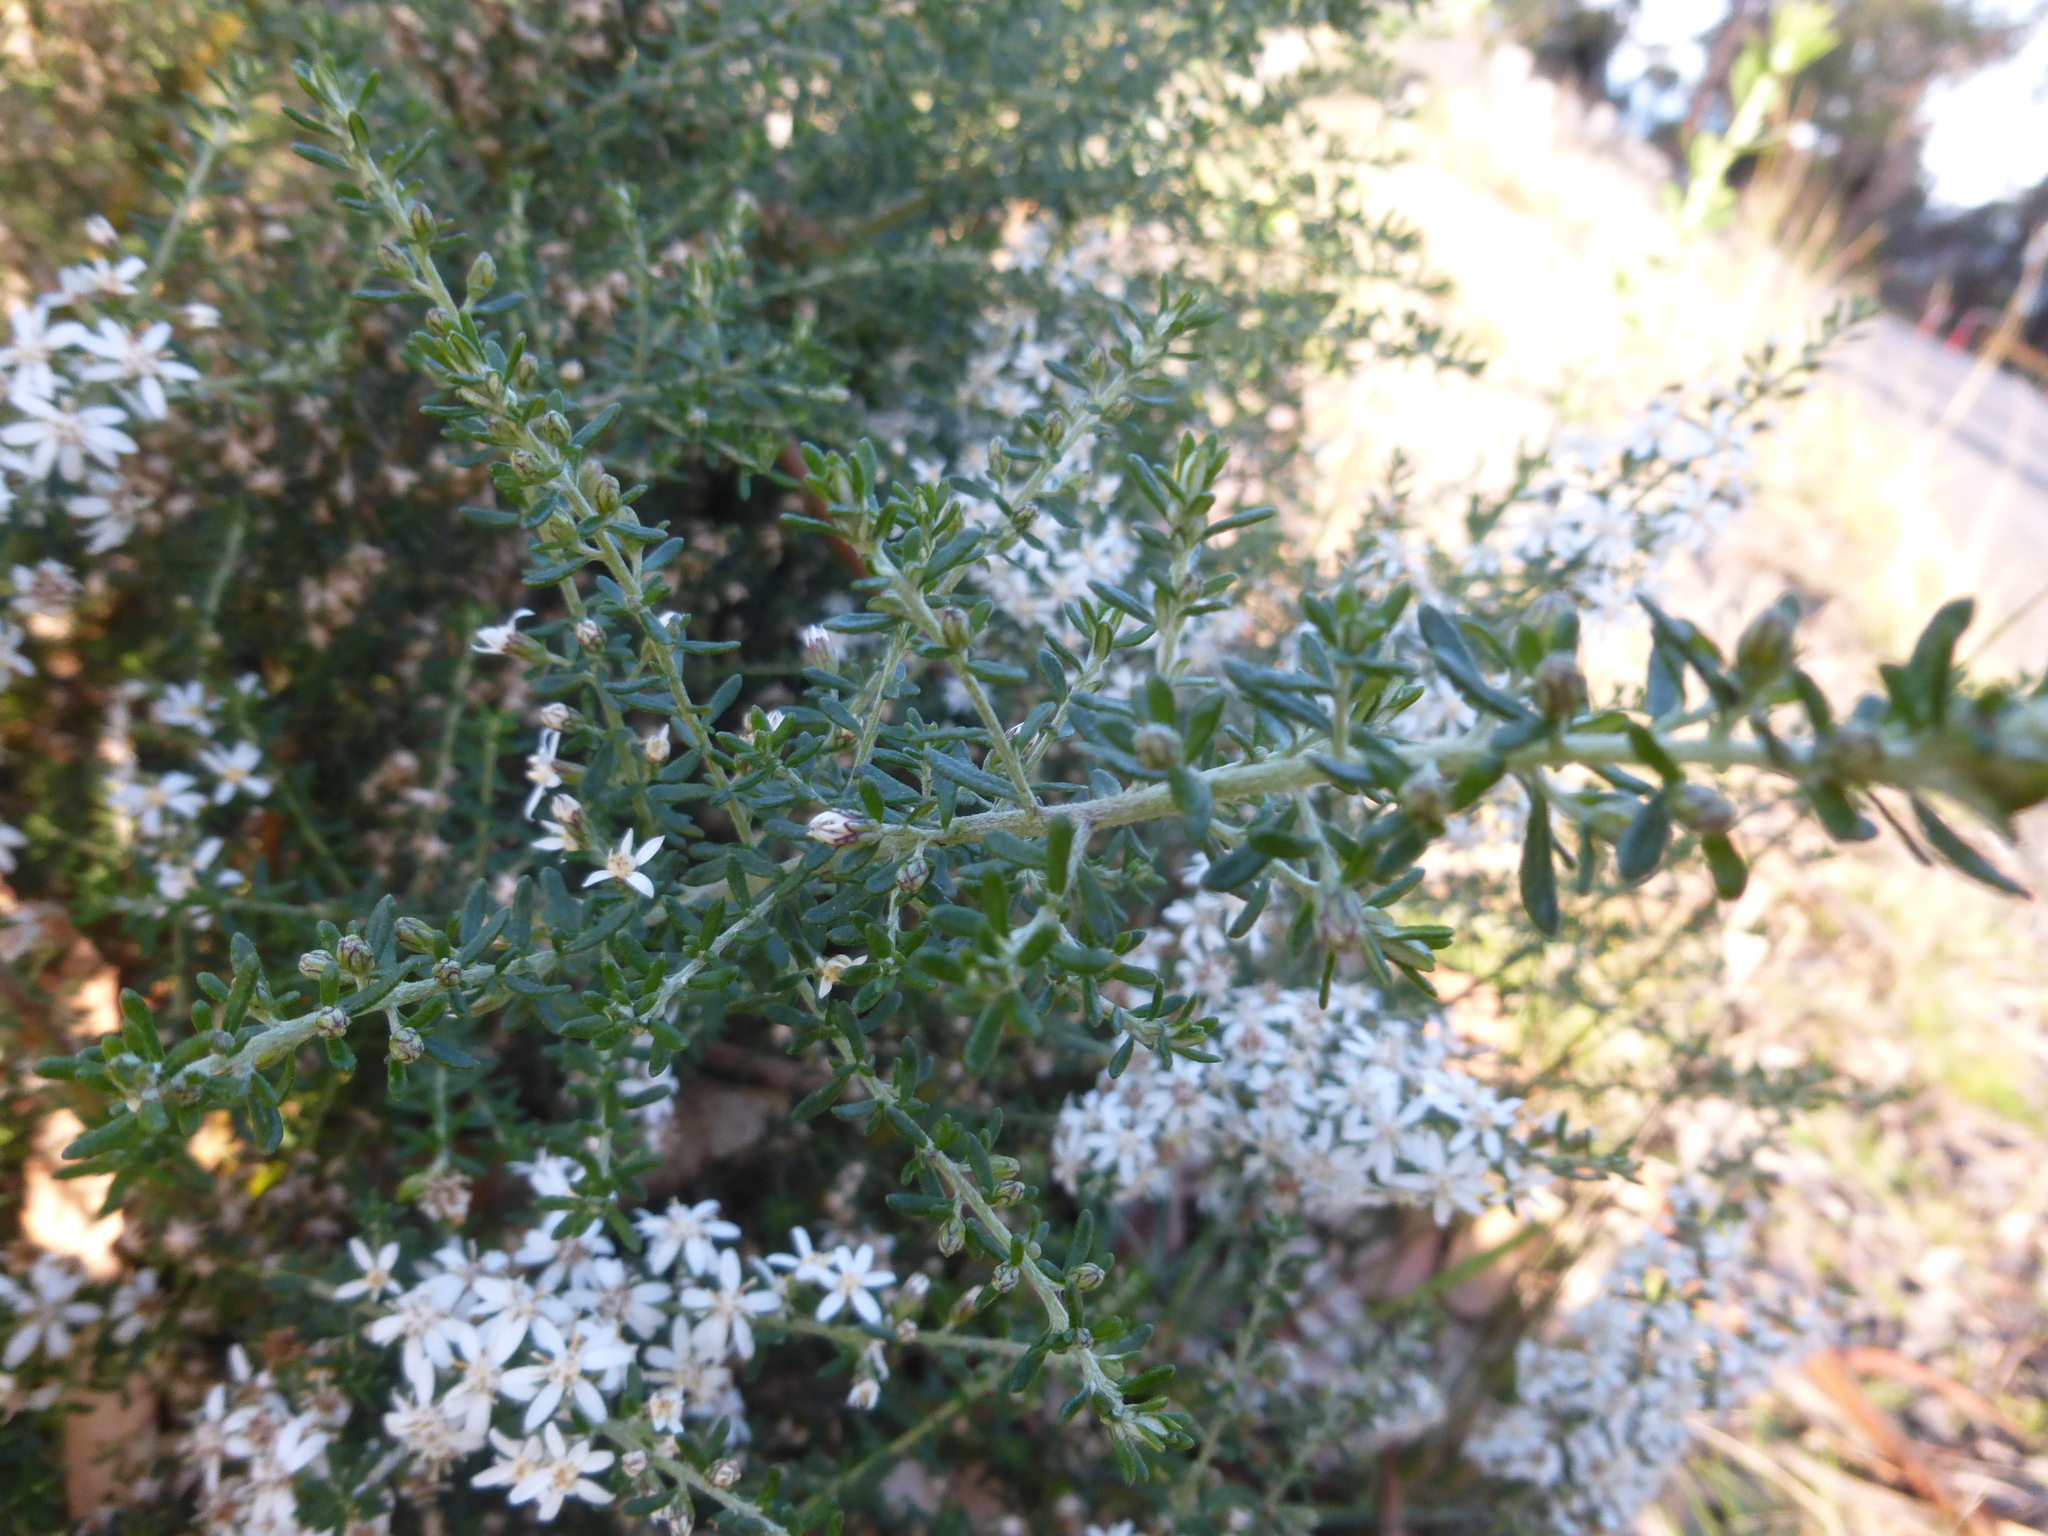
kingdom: Plantae
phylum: Tracheophyta
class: Magnoliopsida
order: Asterales
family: Asteraceae
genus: Olearia
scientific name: Olearia ramulosa
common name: Twiggy daisybush
